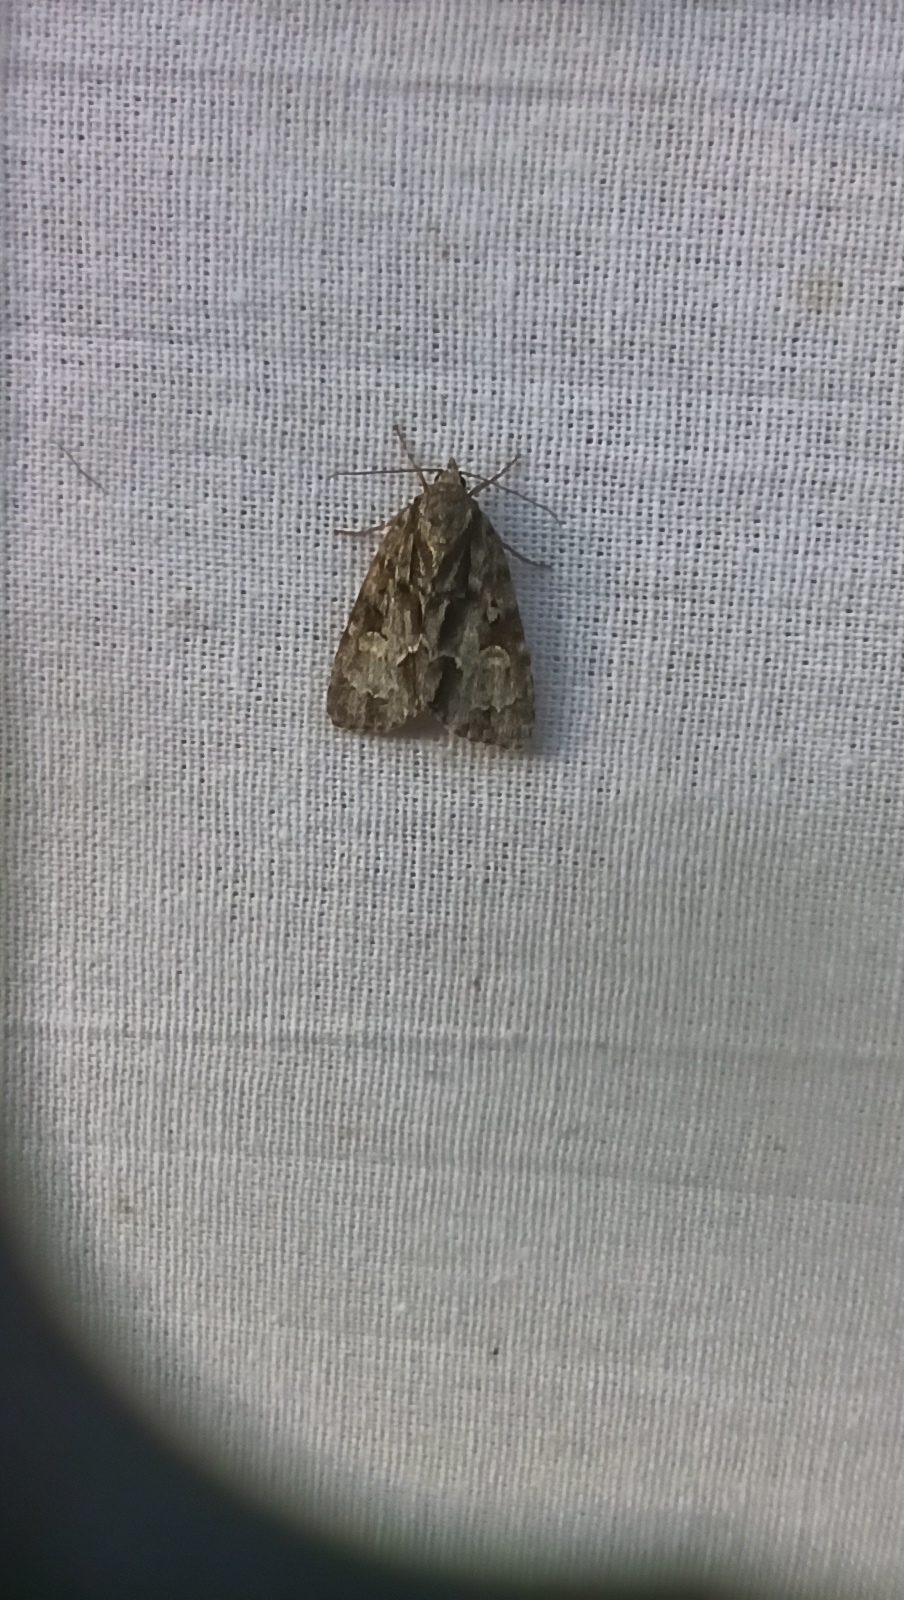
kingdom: Animalia
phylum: Arthropoda
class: Insecta
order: Lepidoptera
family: Noctuidae
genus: Acronicta
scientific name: Acronicta strigosa
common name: Marsh dagger
